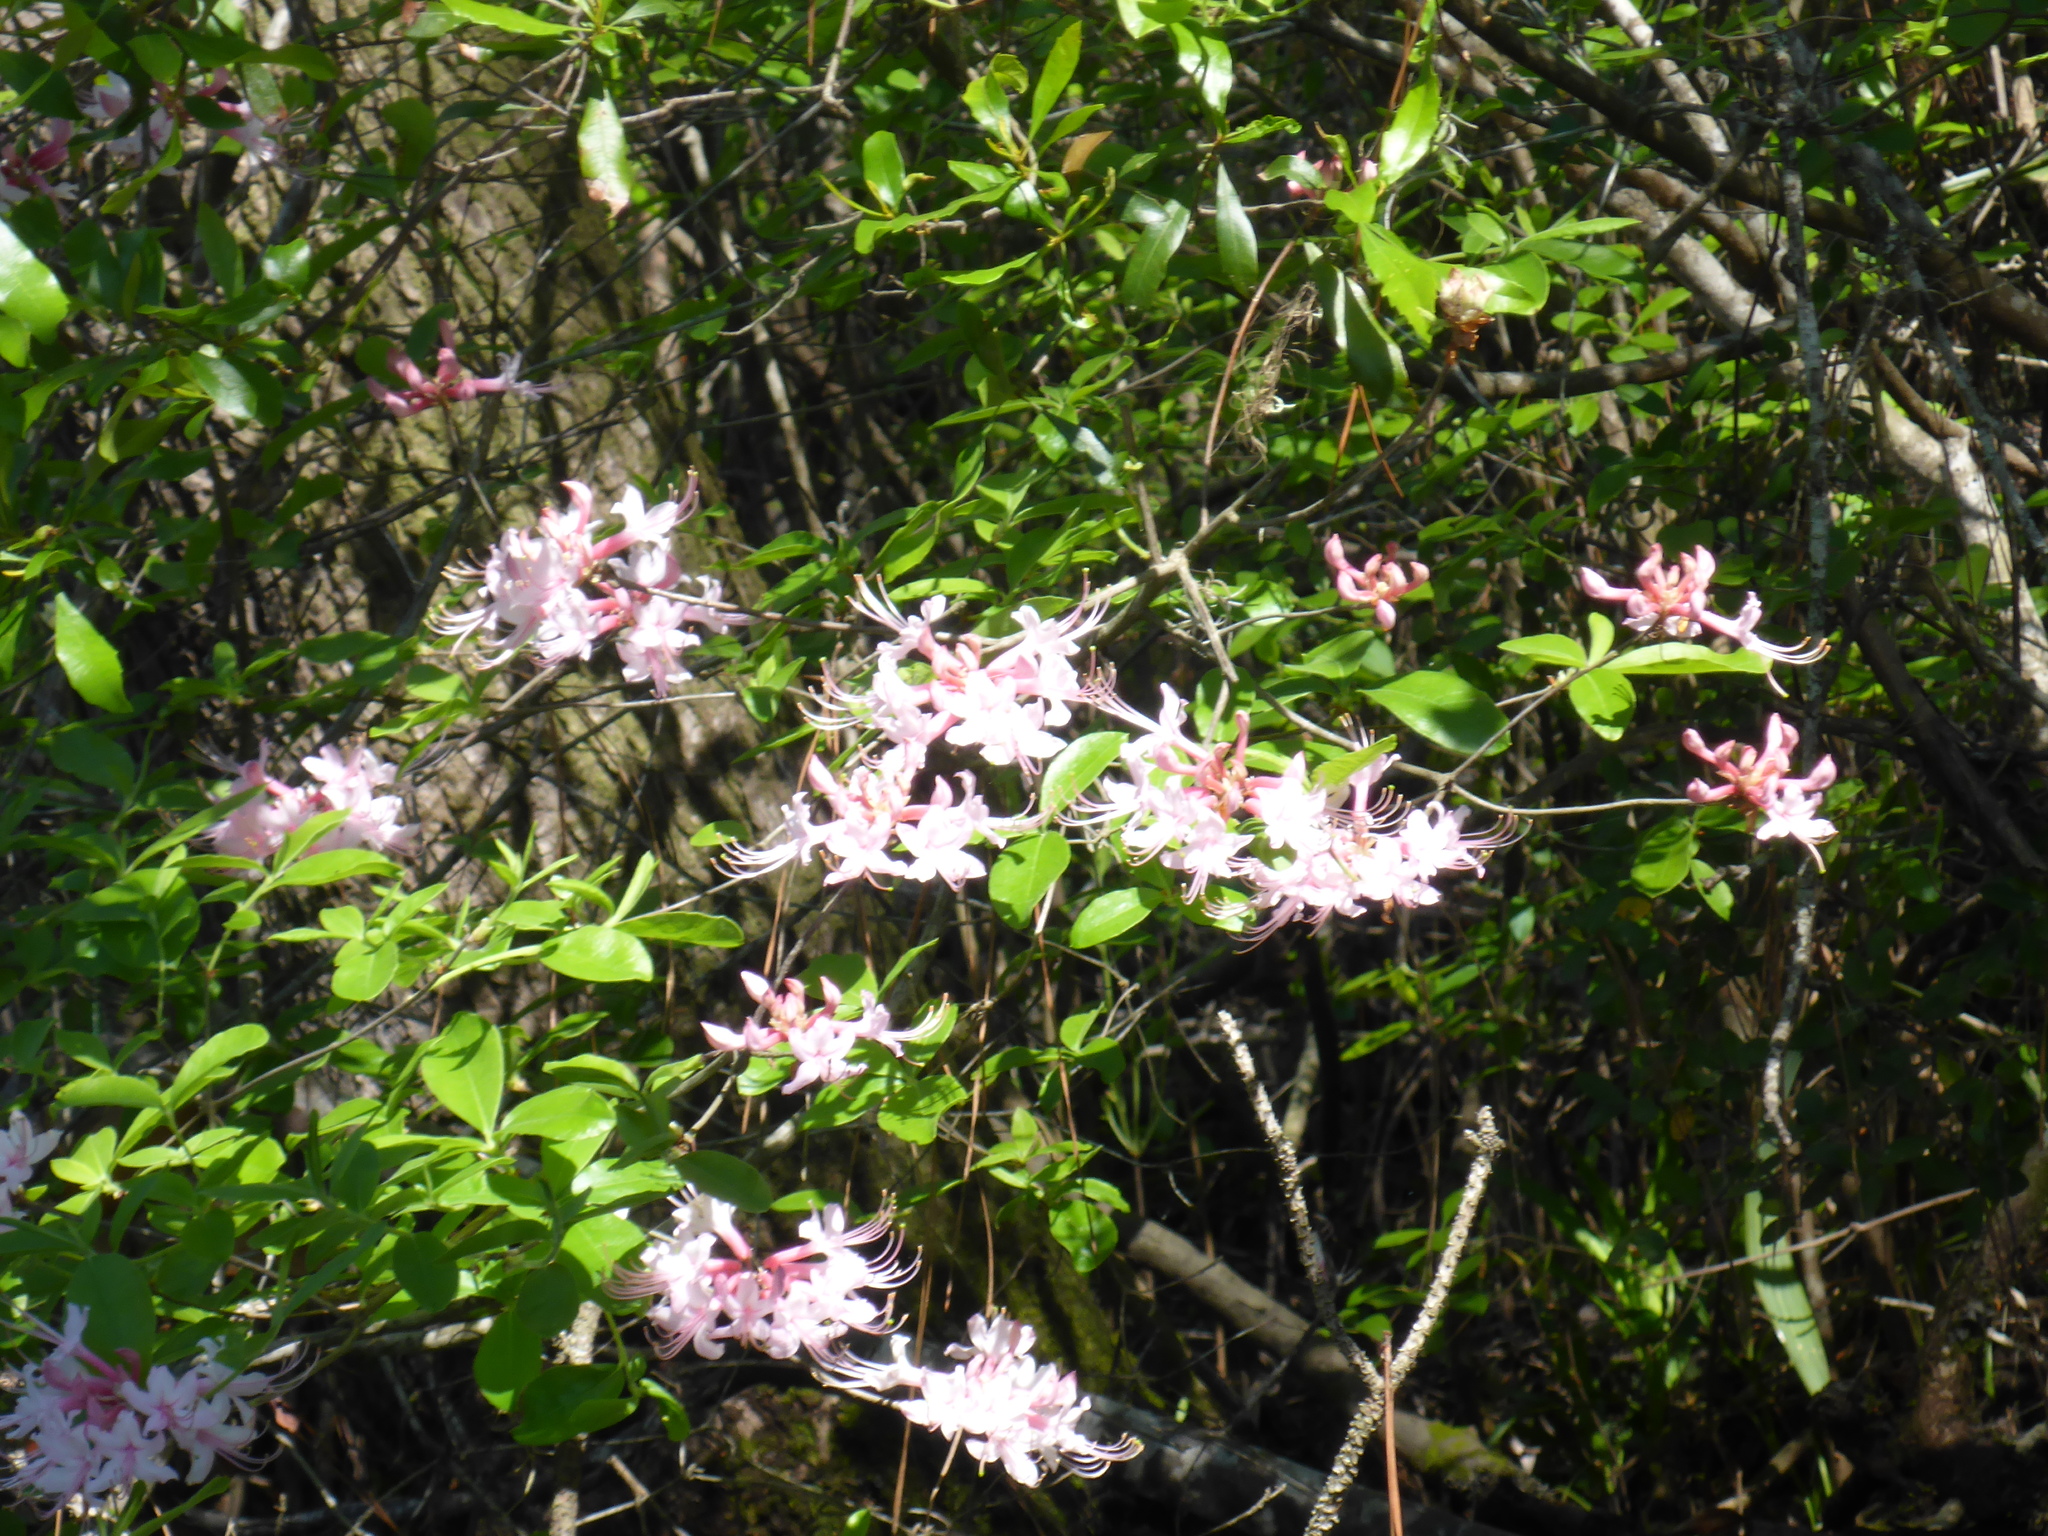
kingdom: Plantae
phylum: Tracheophyta
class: Magnoliopsida
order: Ericales
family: Ericaceae
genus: Rhododendron
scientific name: Rhododendron canescens
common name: Mountain azalea
